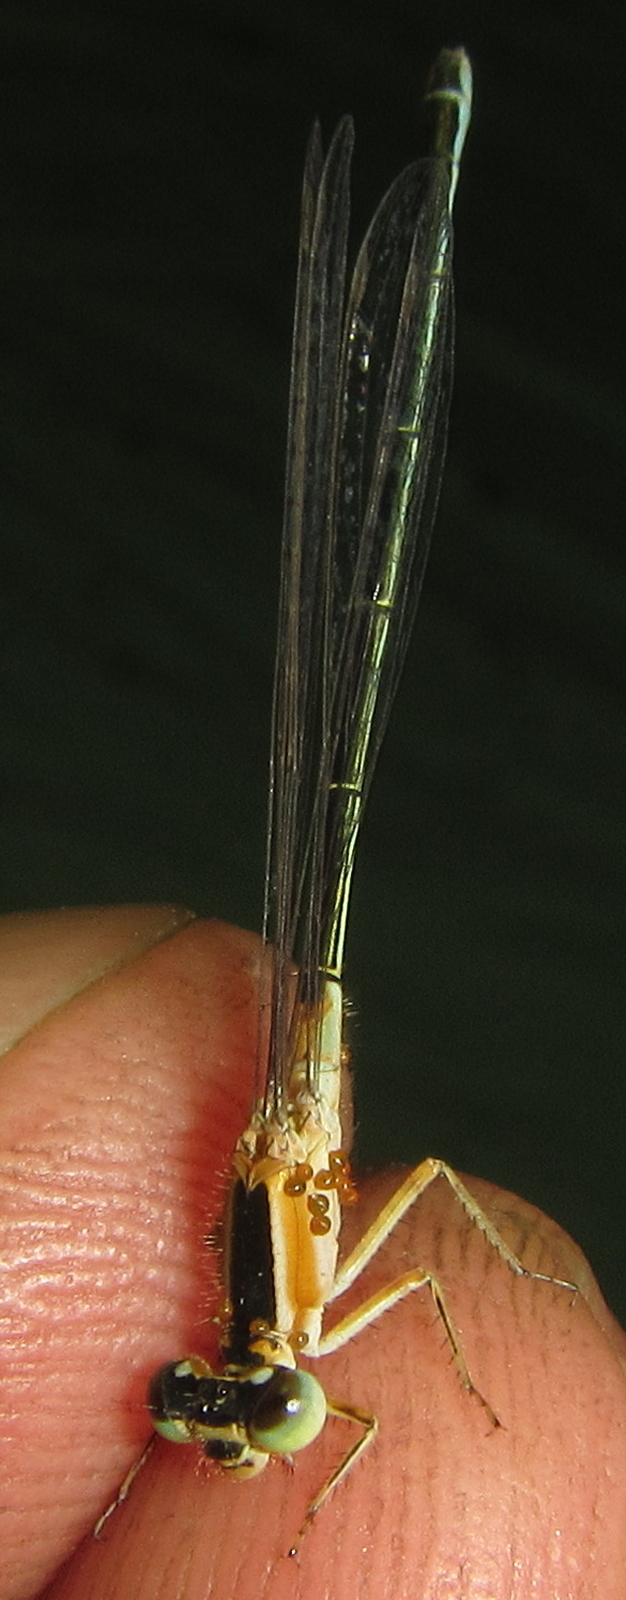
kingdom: Animalia
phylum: Arthropoda
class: Insecta
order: Odonata
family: Coenagrionidae
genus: Ischnura
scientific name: Ischnura senegalensis
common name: Tropical bluetail
